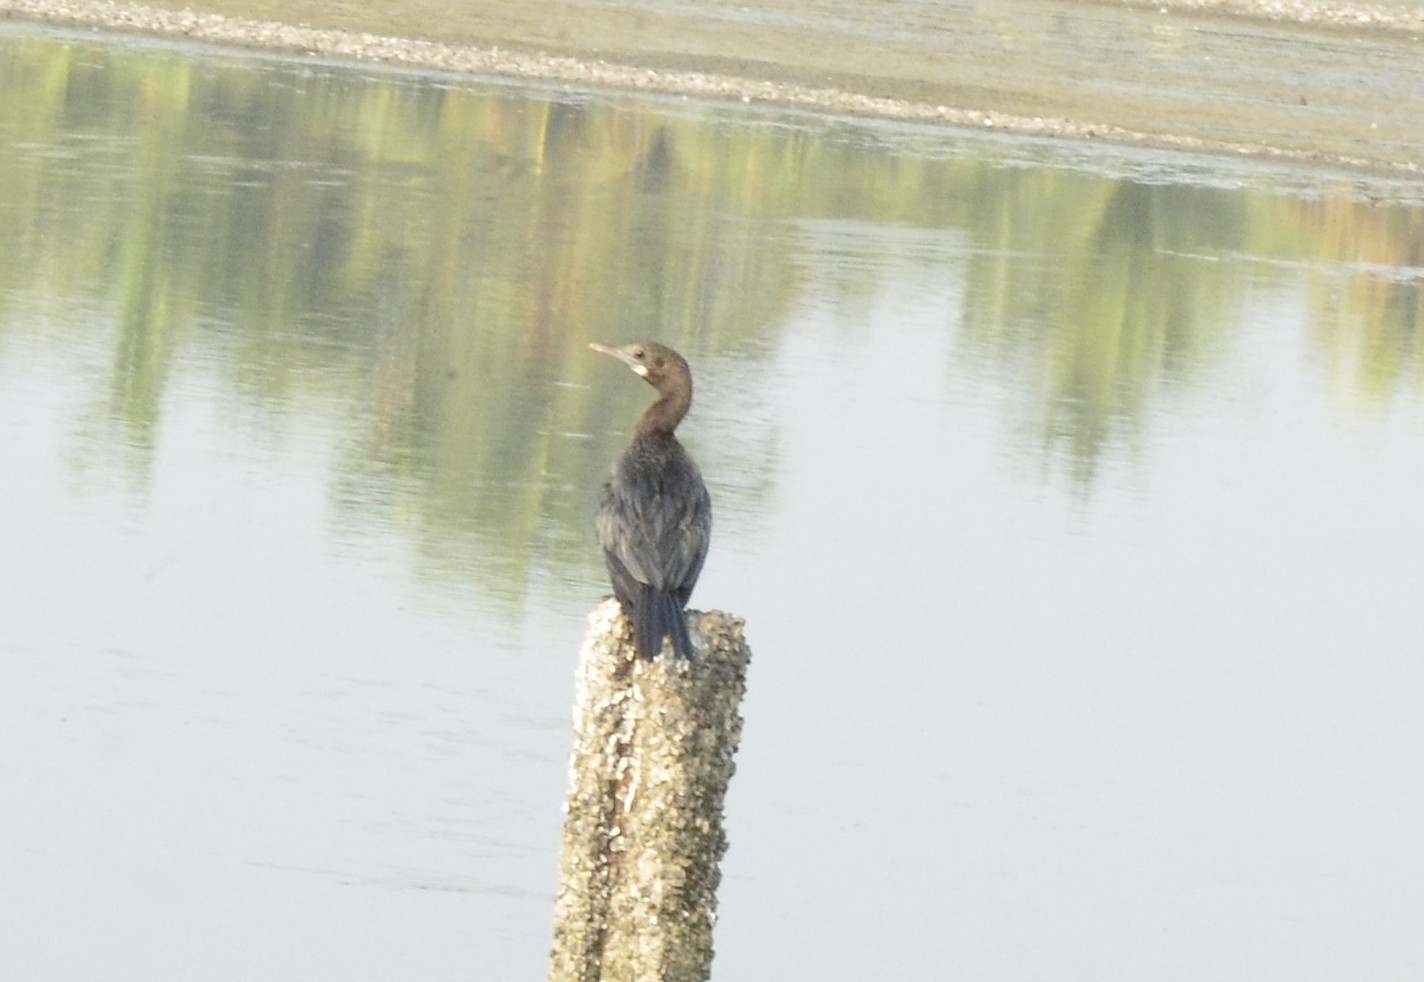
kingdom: Animalia
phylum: Chordata
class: Aves
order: Suliformes
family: Phalacrocoracidae
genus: Microcarbo
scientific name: Microcarbo niger
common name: Little cormorant
